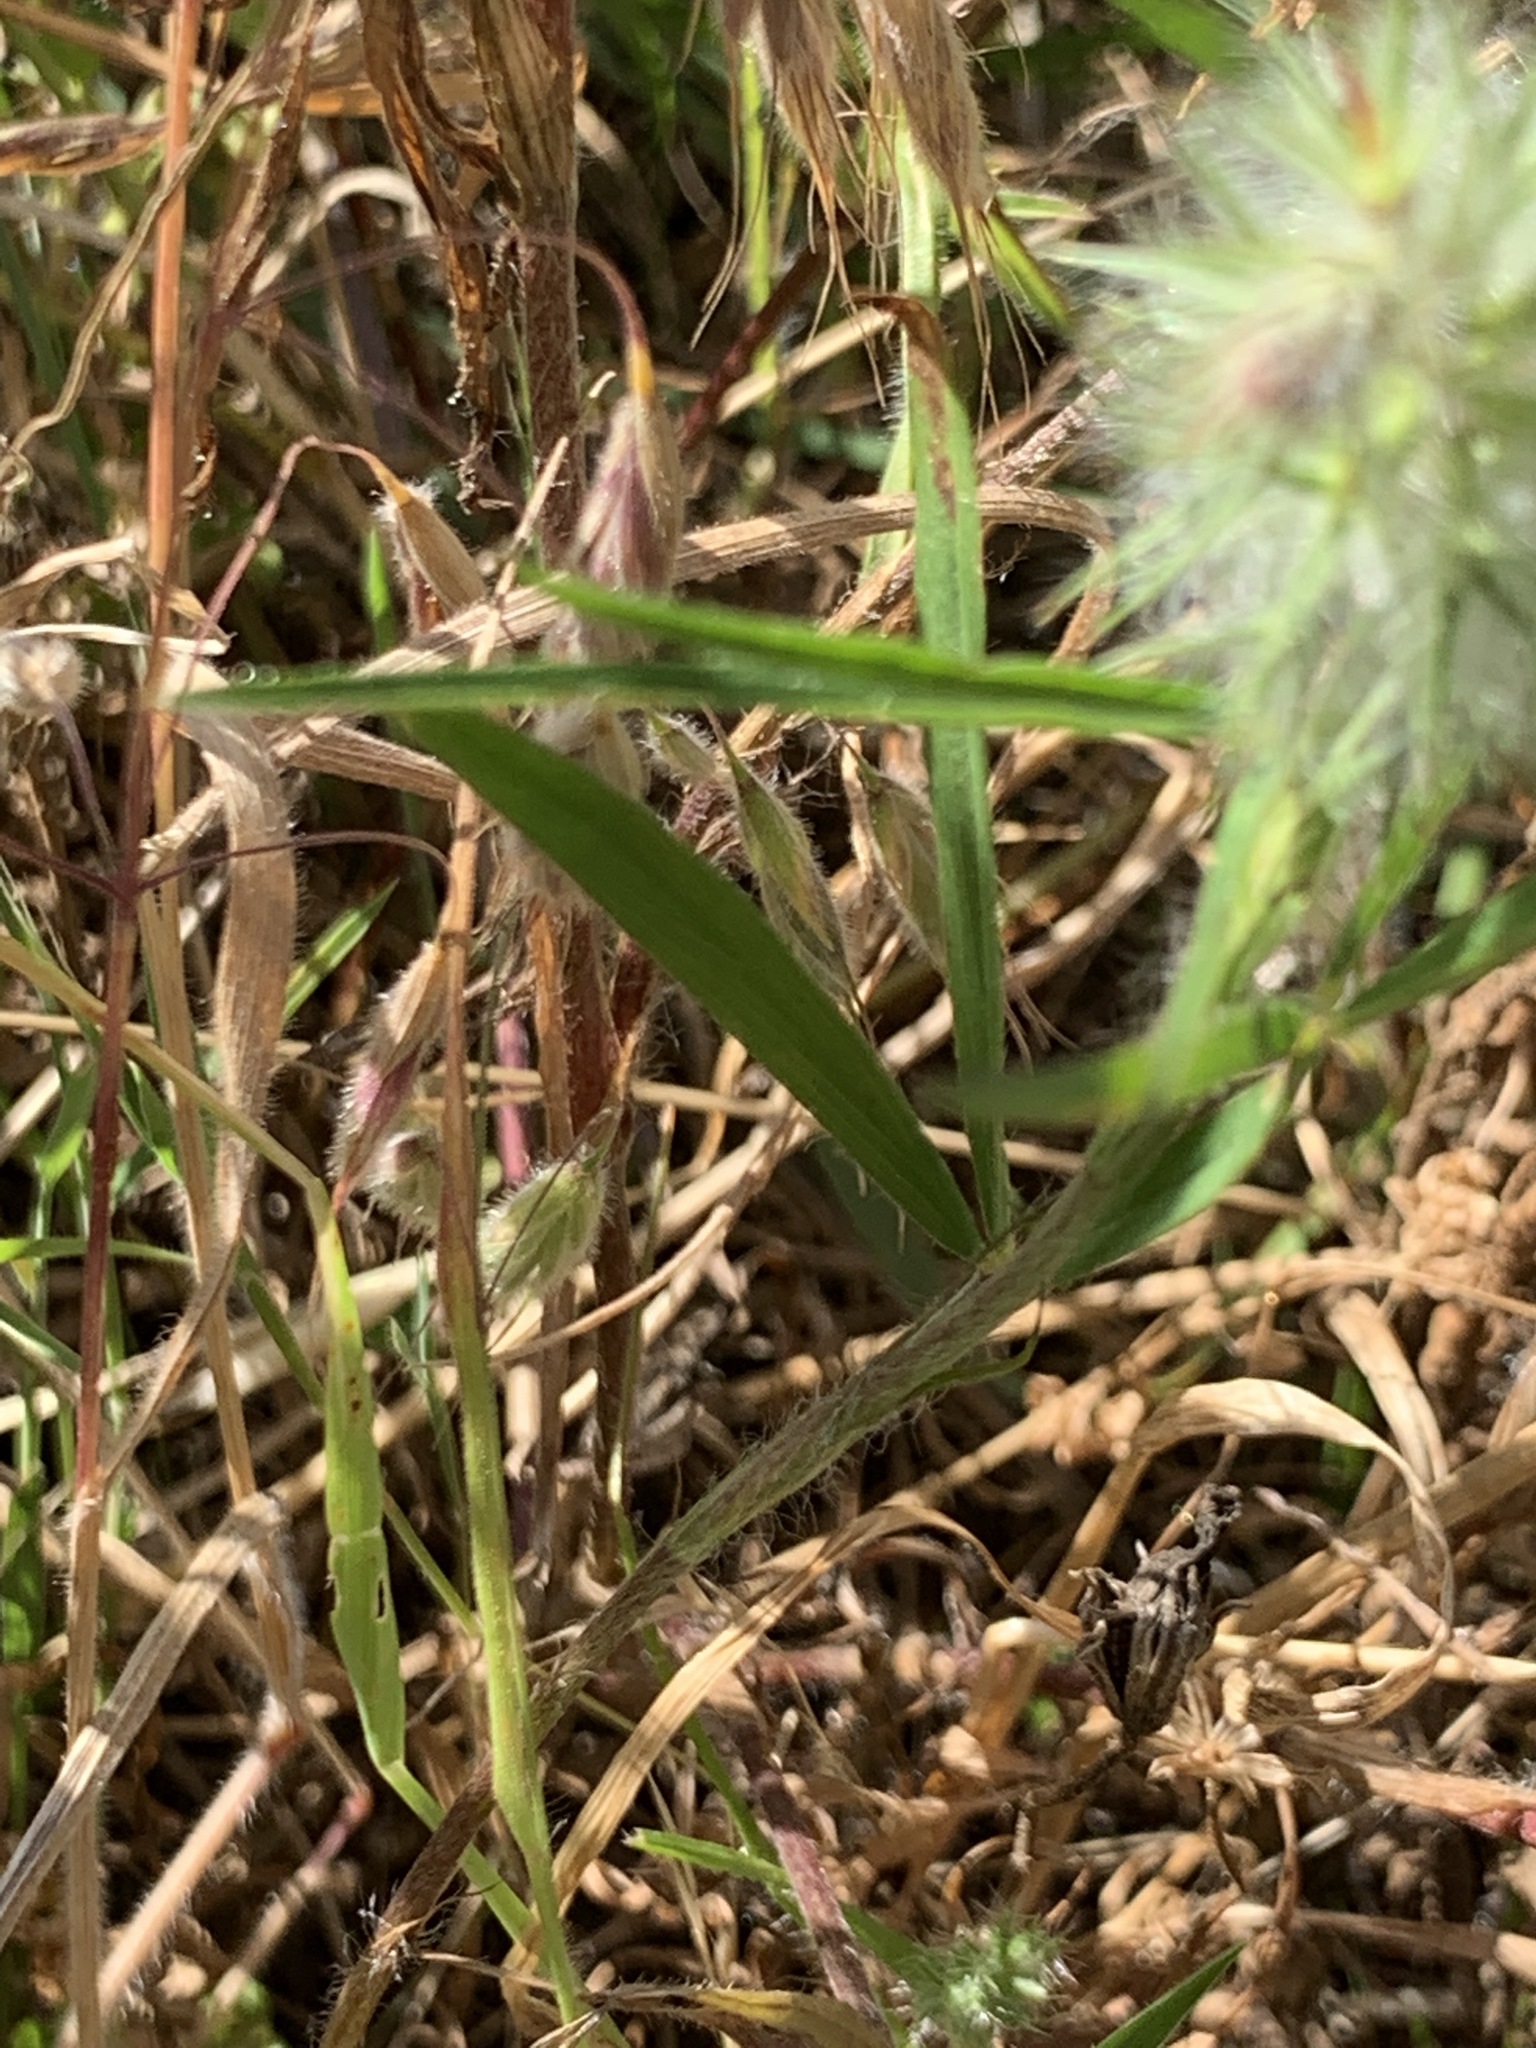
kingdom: Plantae
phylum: Tracheophyta
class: Magnoliopsida
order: Fabales
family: Fabaceae
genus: Trifolium
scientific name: Trifolium angustifolium
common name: Narrow clover
